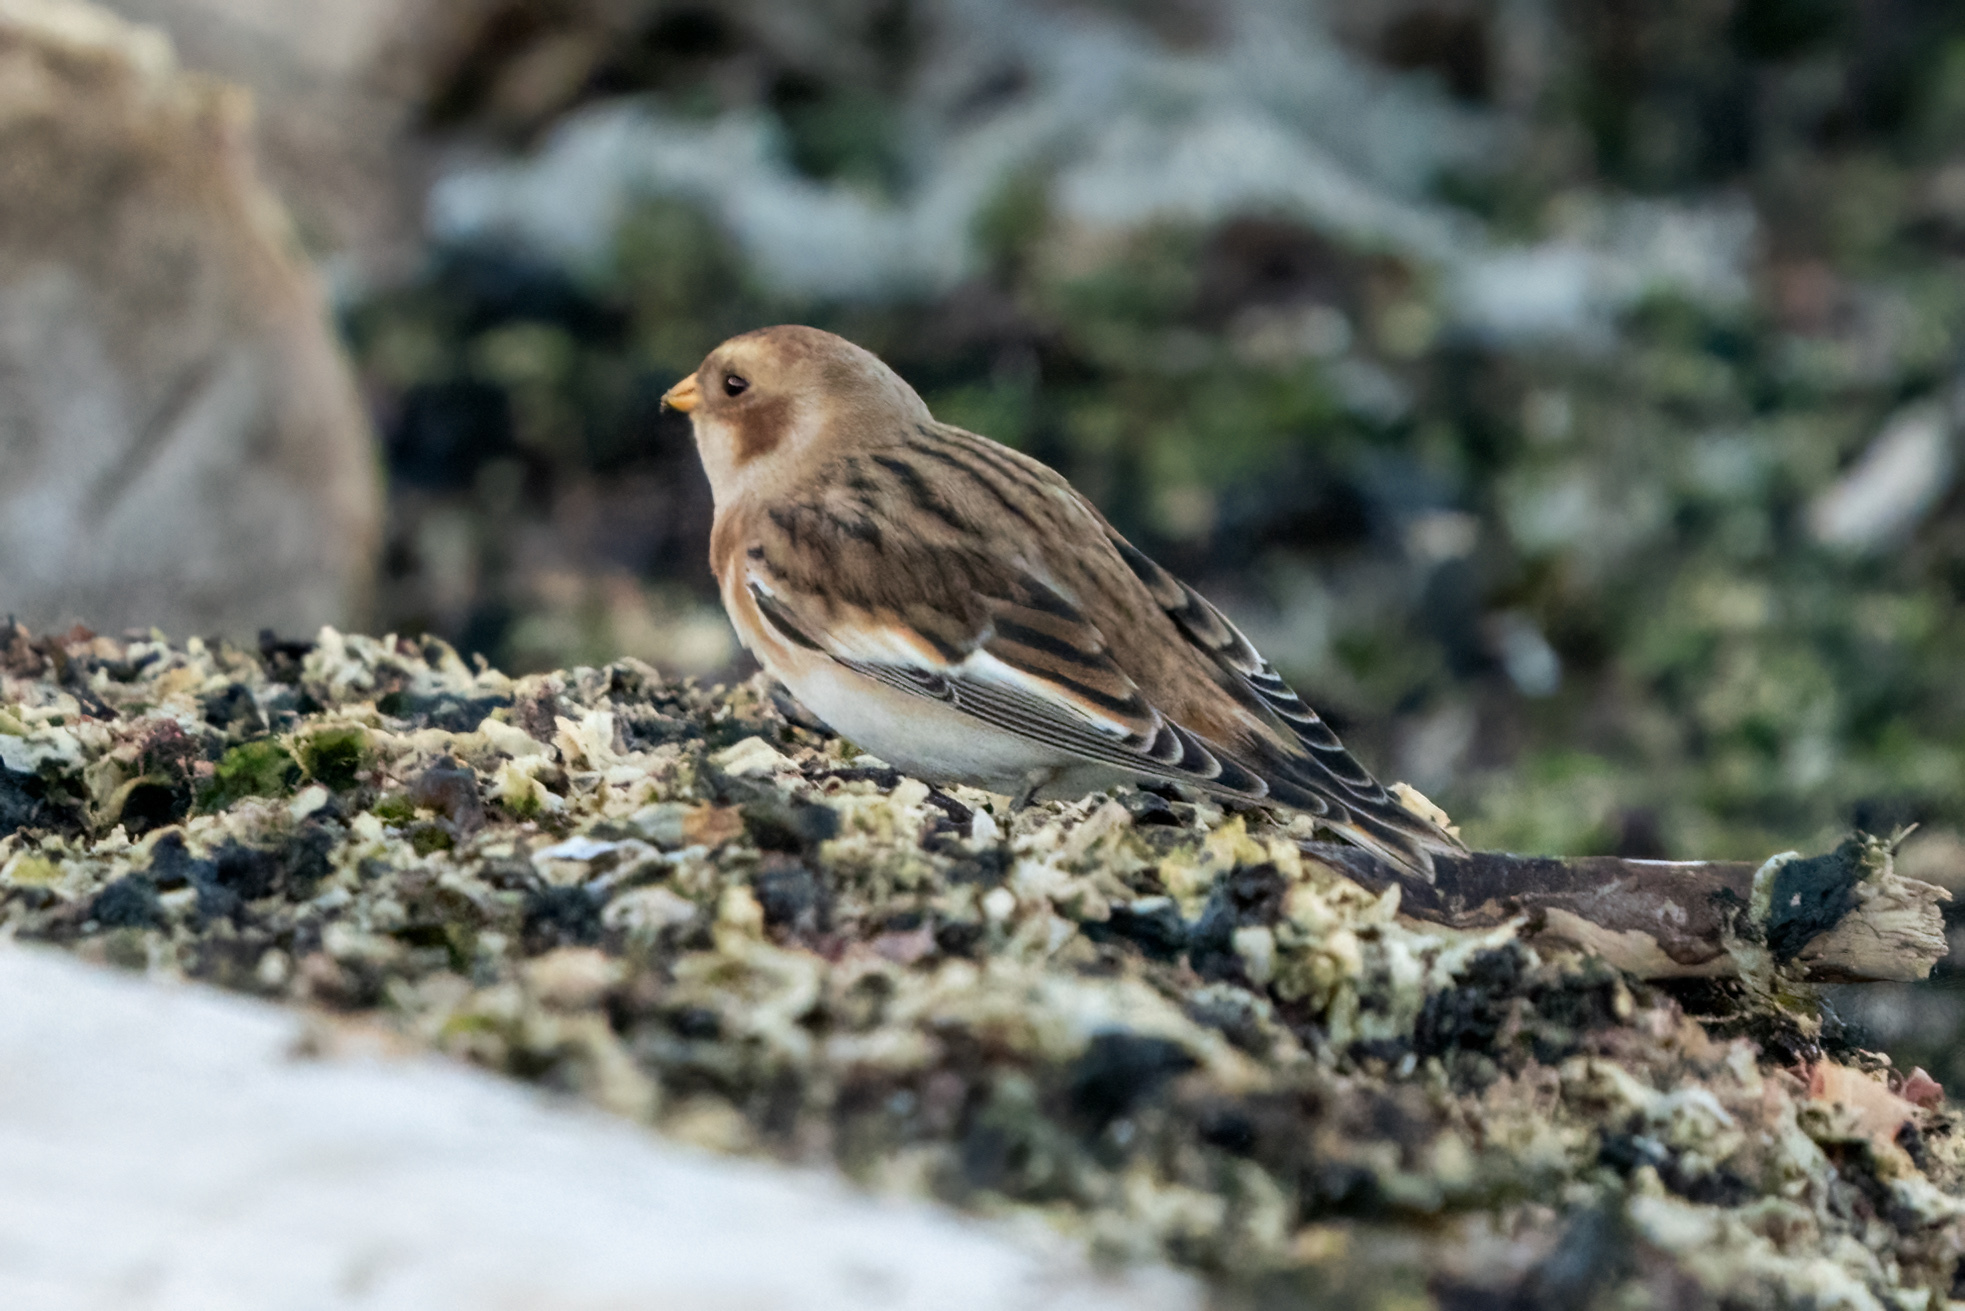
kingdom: Animalia
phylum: Chordata
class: Aves
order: Passeriformes
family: Calcariidae
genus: Plectrophenax
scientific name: Plectrophenax nivalis
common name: Snow bunting
